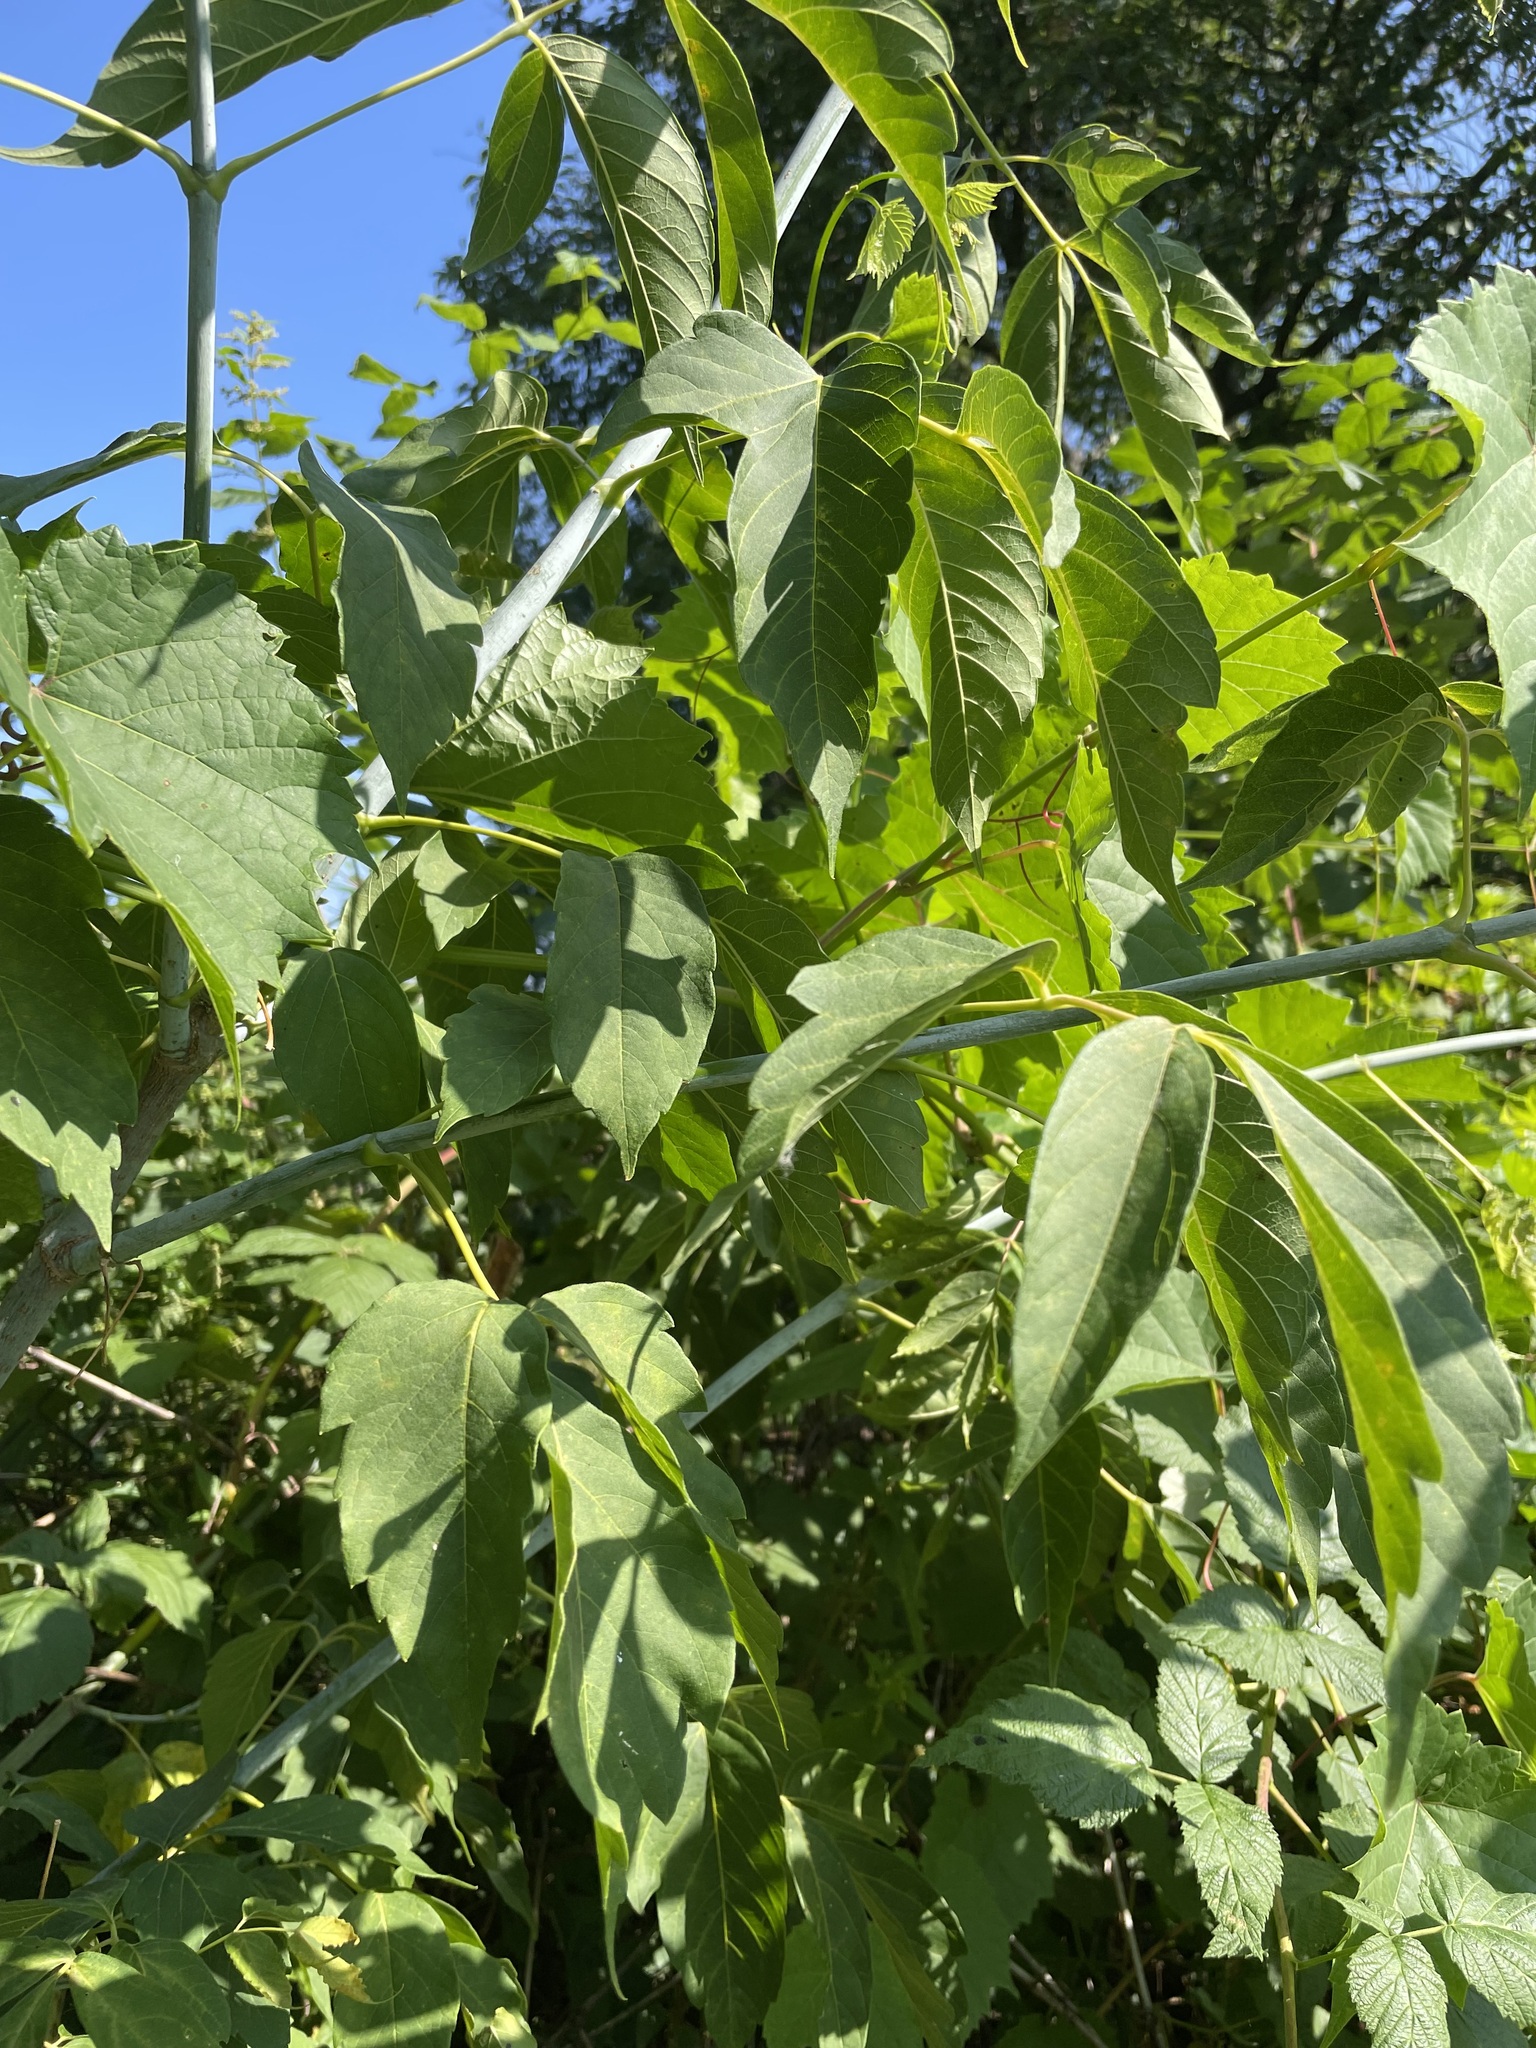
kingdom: Plantae
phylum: Tracheophyta
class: Magnoliopsida
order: Sapindales
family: Sapindaceae
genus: Acer
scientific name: Acer negundo
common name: Ashleaf maple
